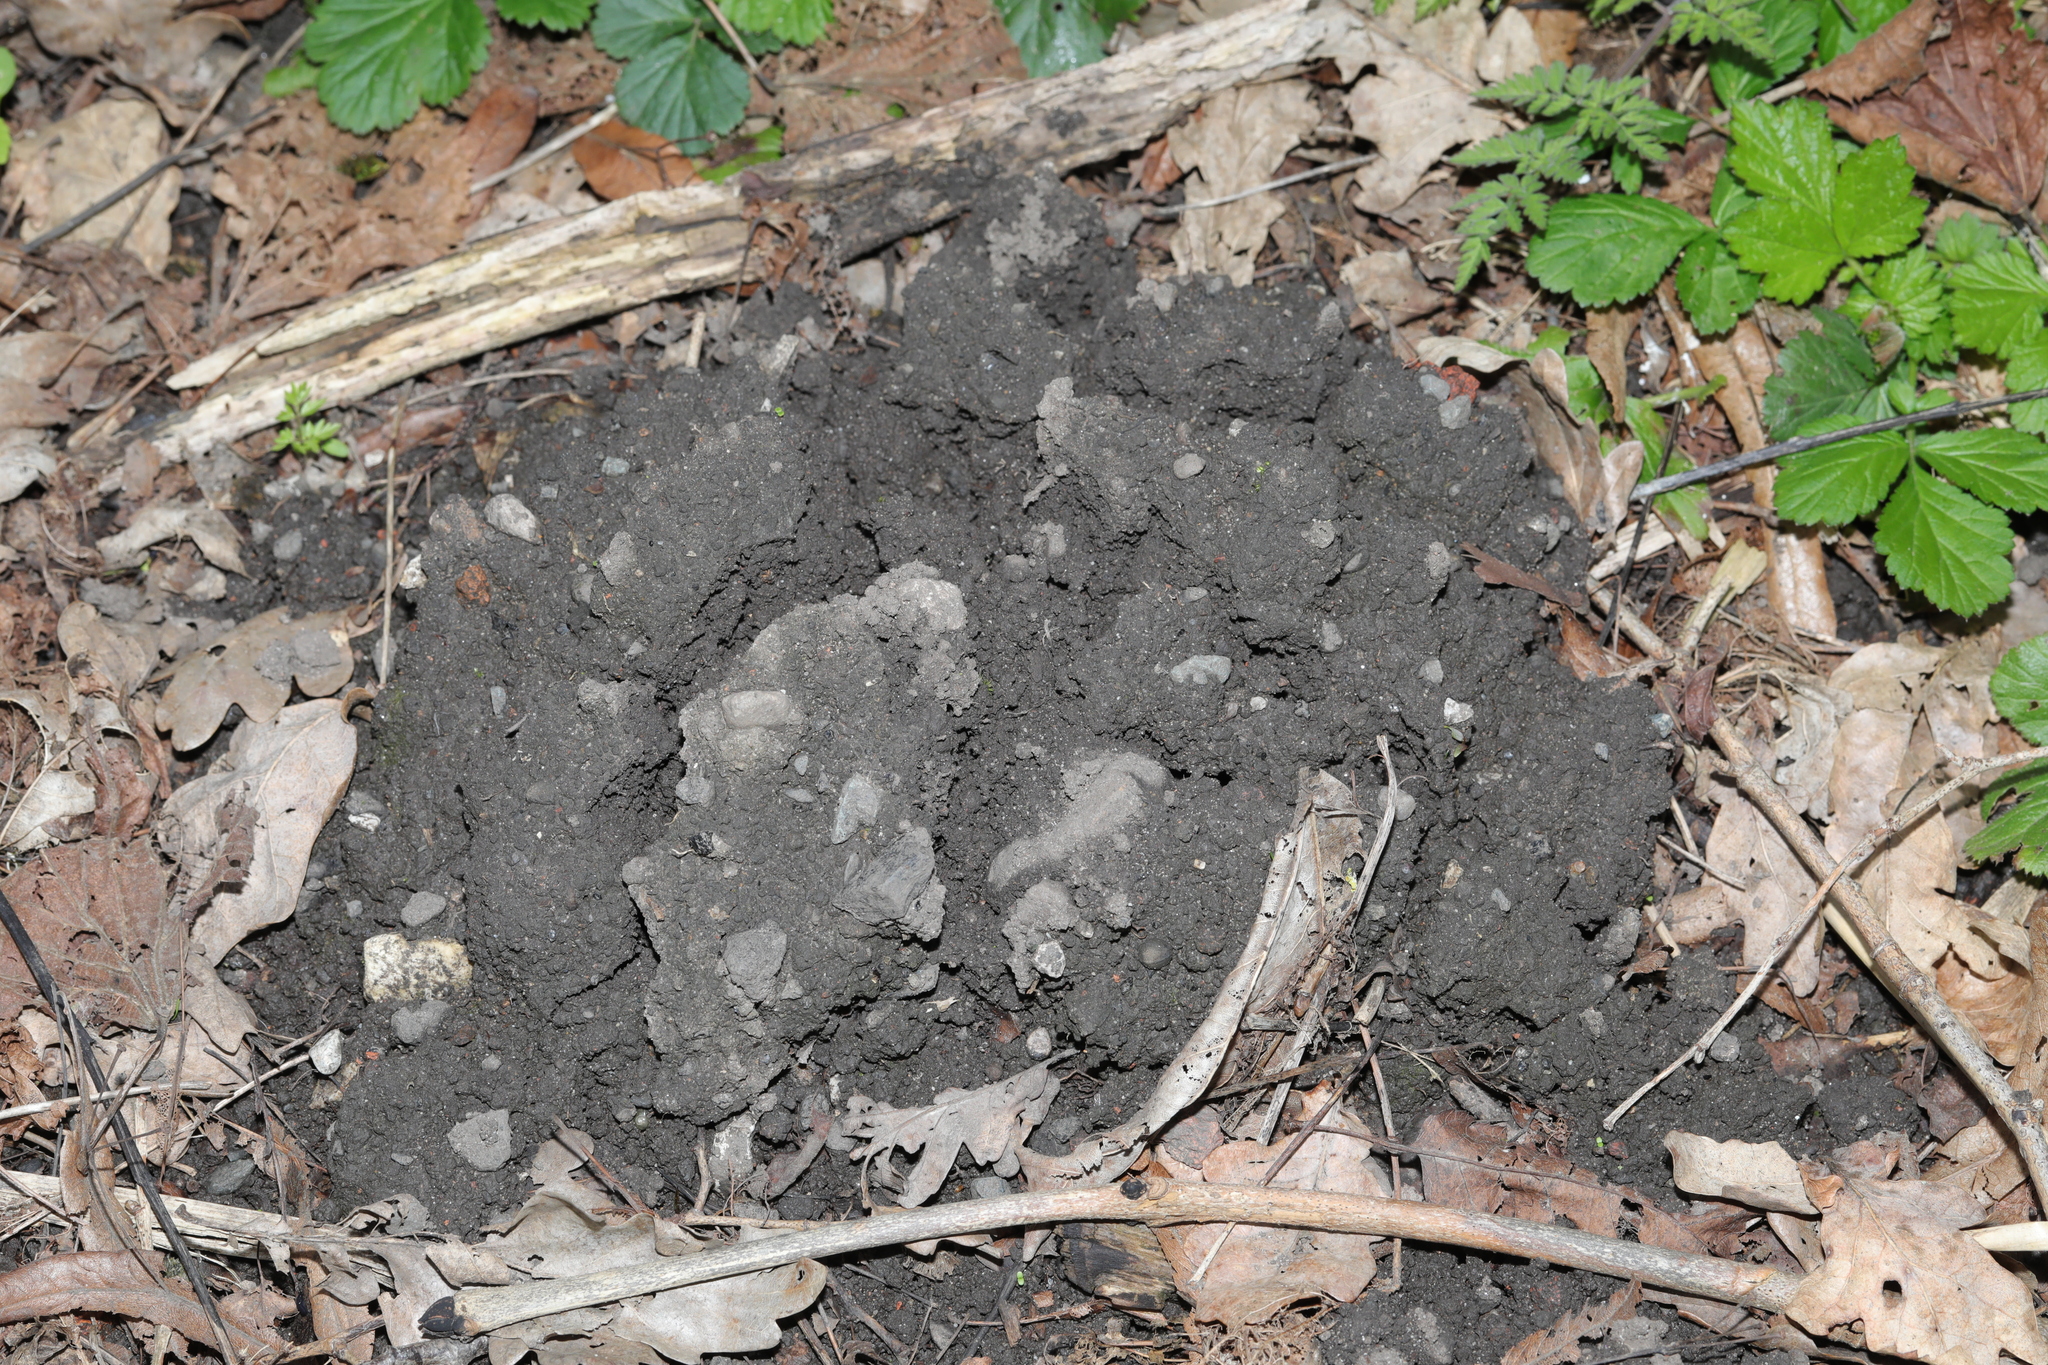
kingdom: Animalia
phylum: Chordata
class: Mammalia
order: Soricomorpha
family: Talpidae
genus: Talpa
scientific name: Talpa europaea
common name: European mole
